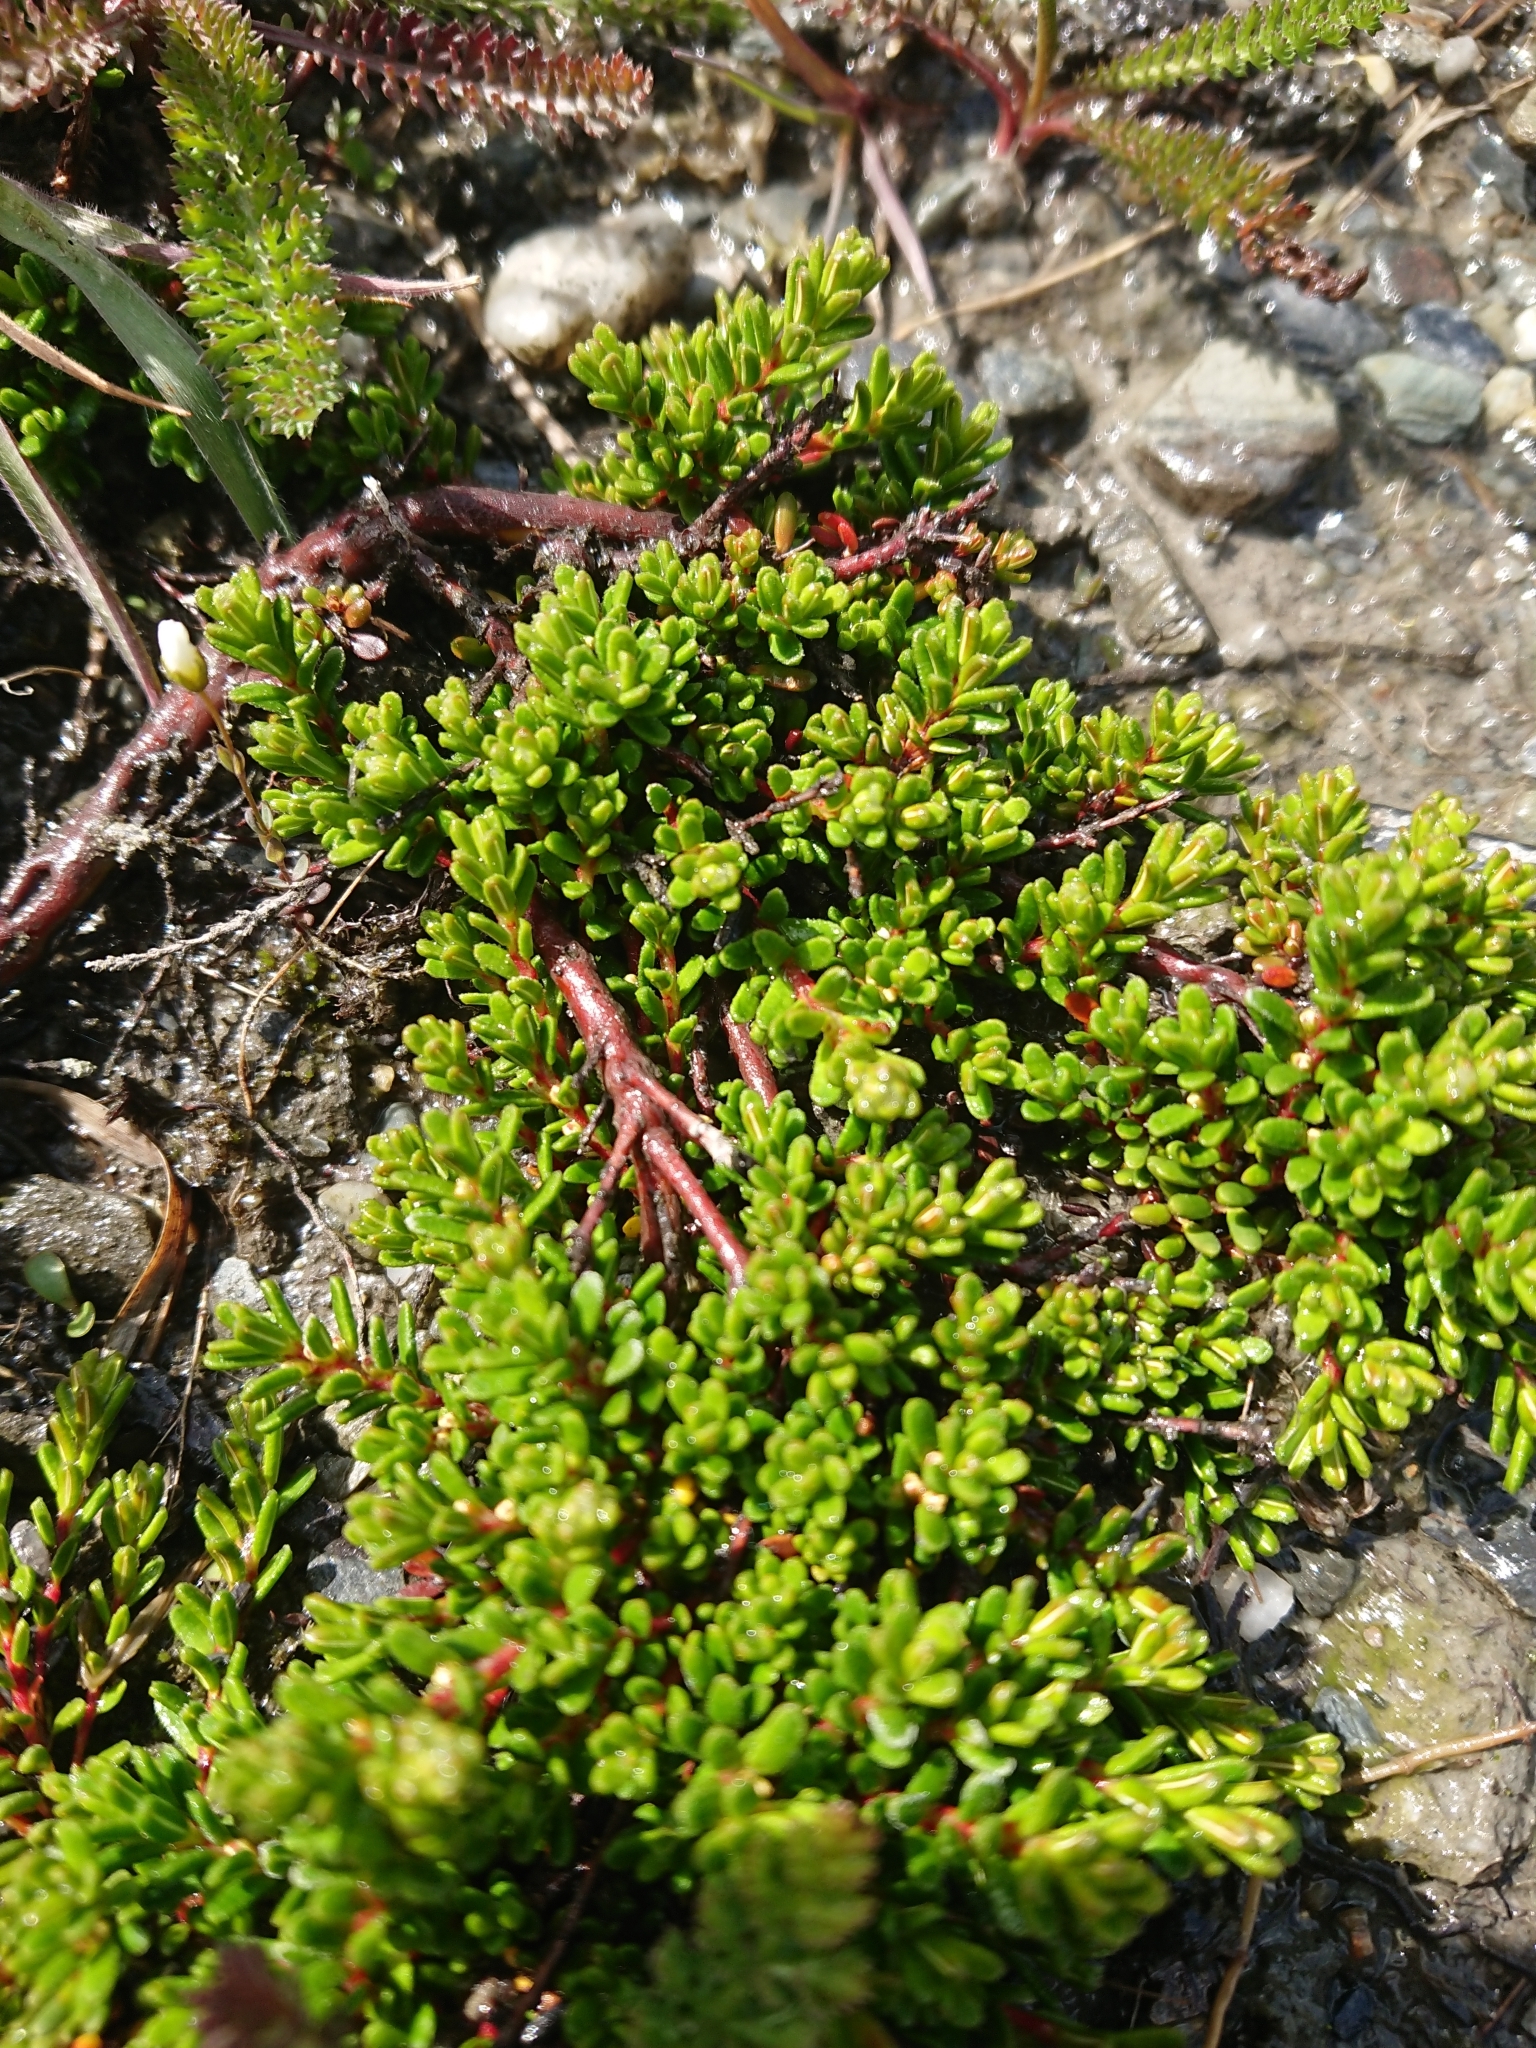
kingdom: Plantae
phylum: Tracheophyta
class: Magnoliopsida
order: Ericales
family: Ericaceae
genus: Empetrum
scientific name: Empetrum rubrum
